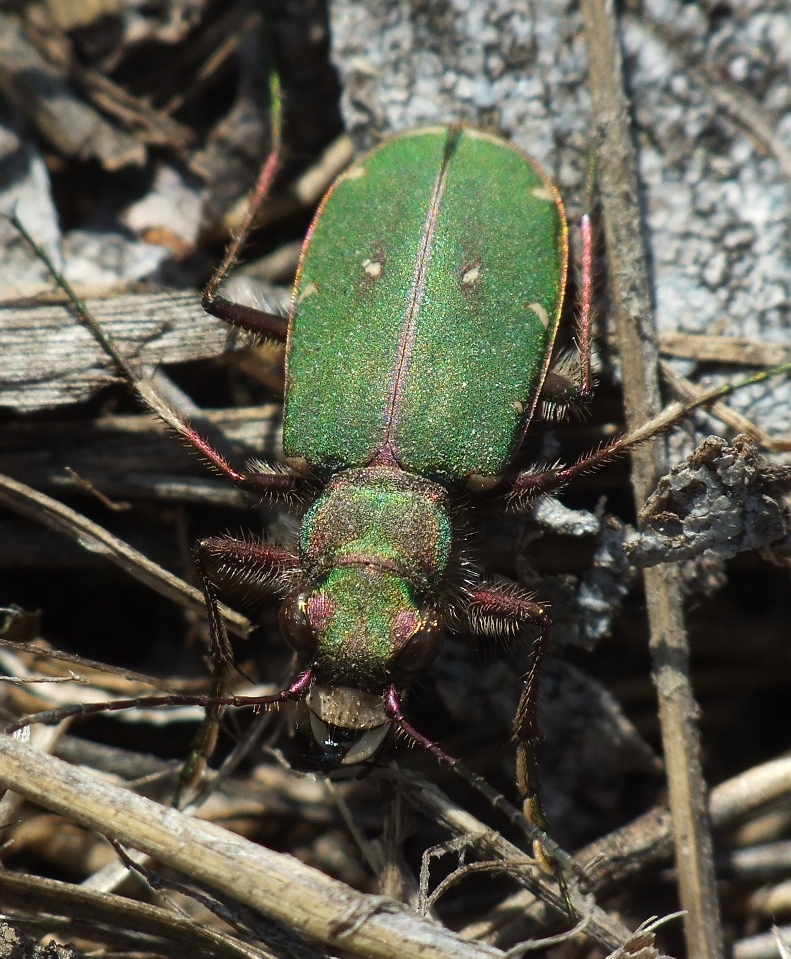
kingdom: Animalia
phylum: Arthropoda
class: Insecta
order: Coleoptera
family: Carabidae
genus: Cicindela
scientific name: Cicindela campestris
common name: Common tiger beetle
